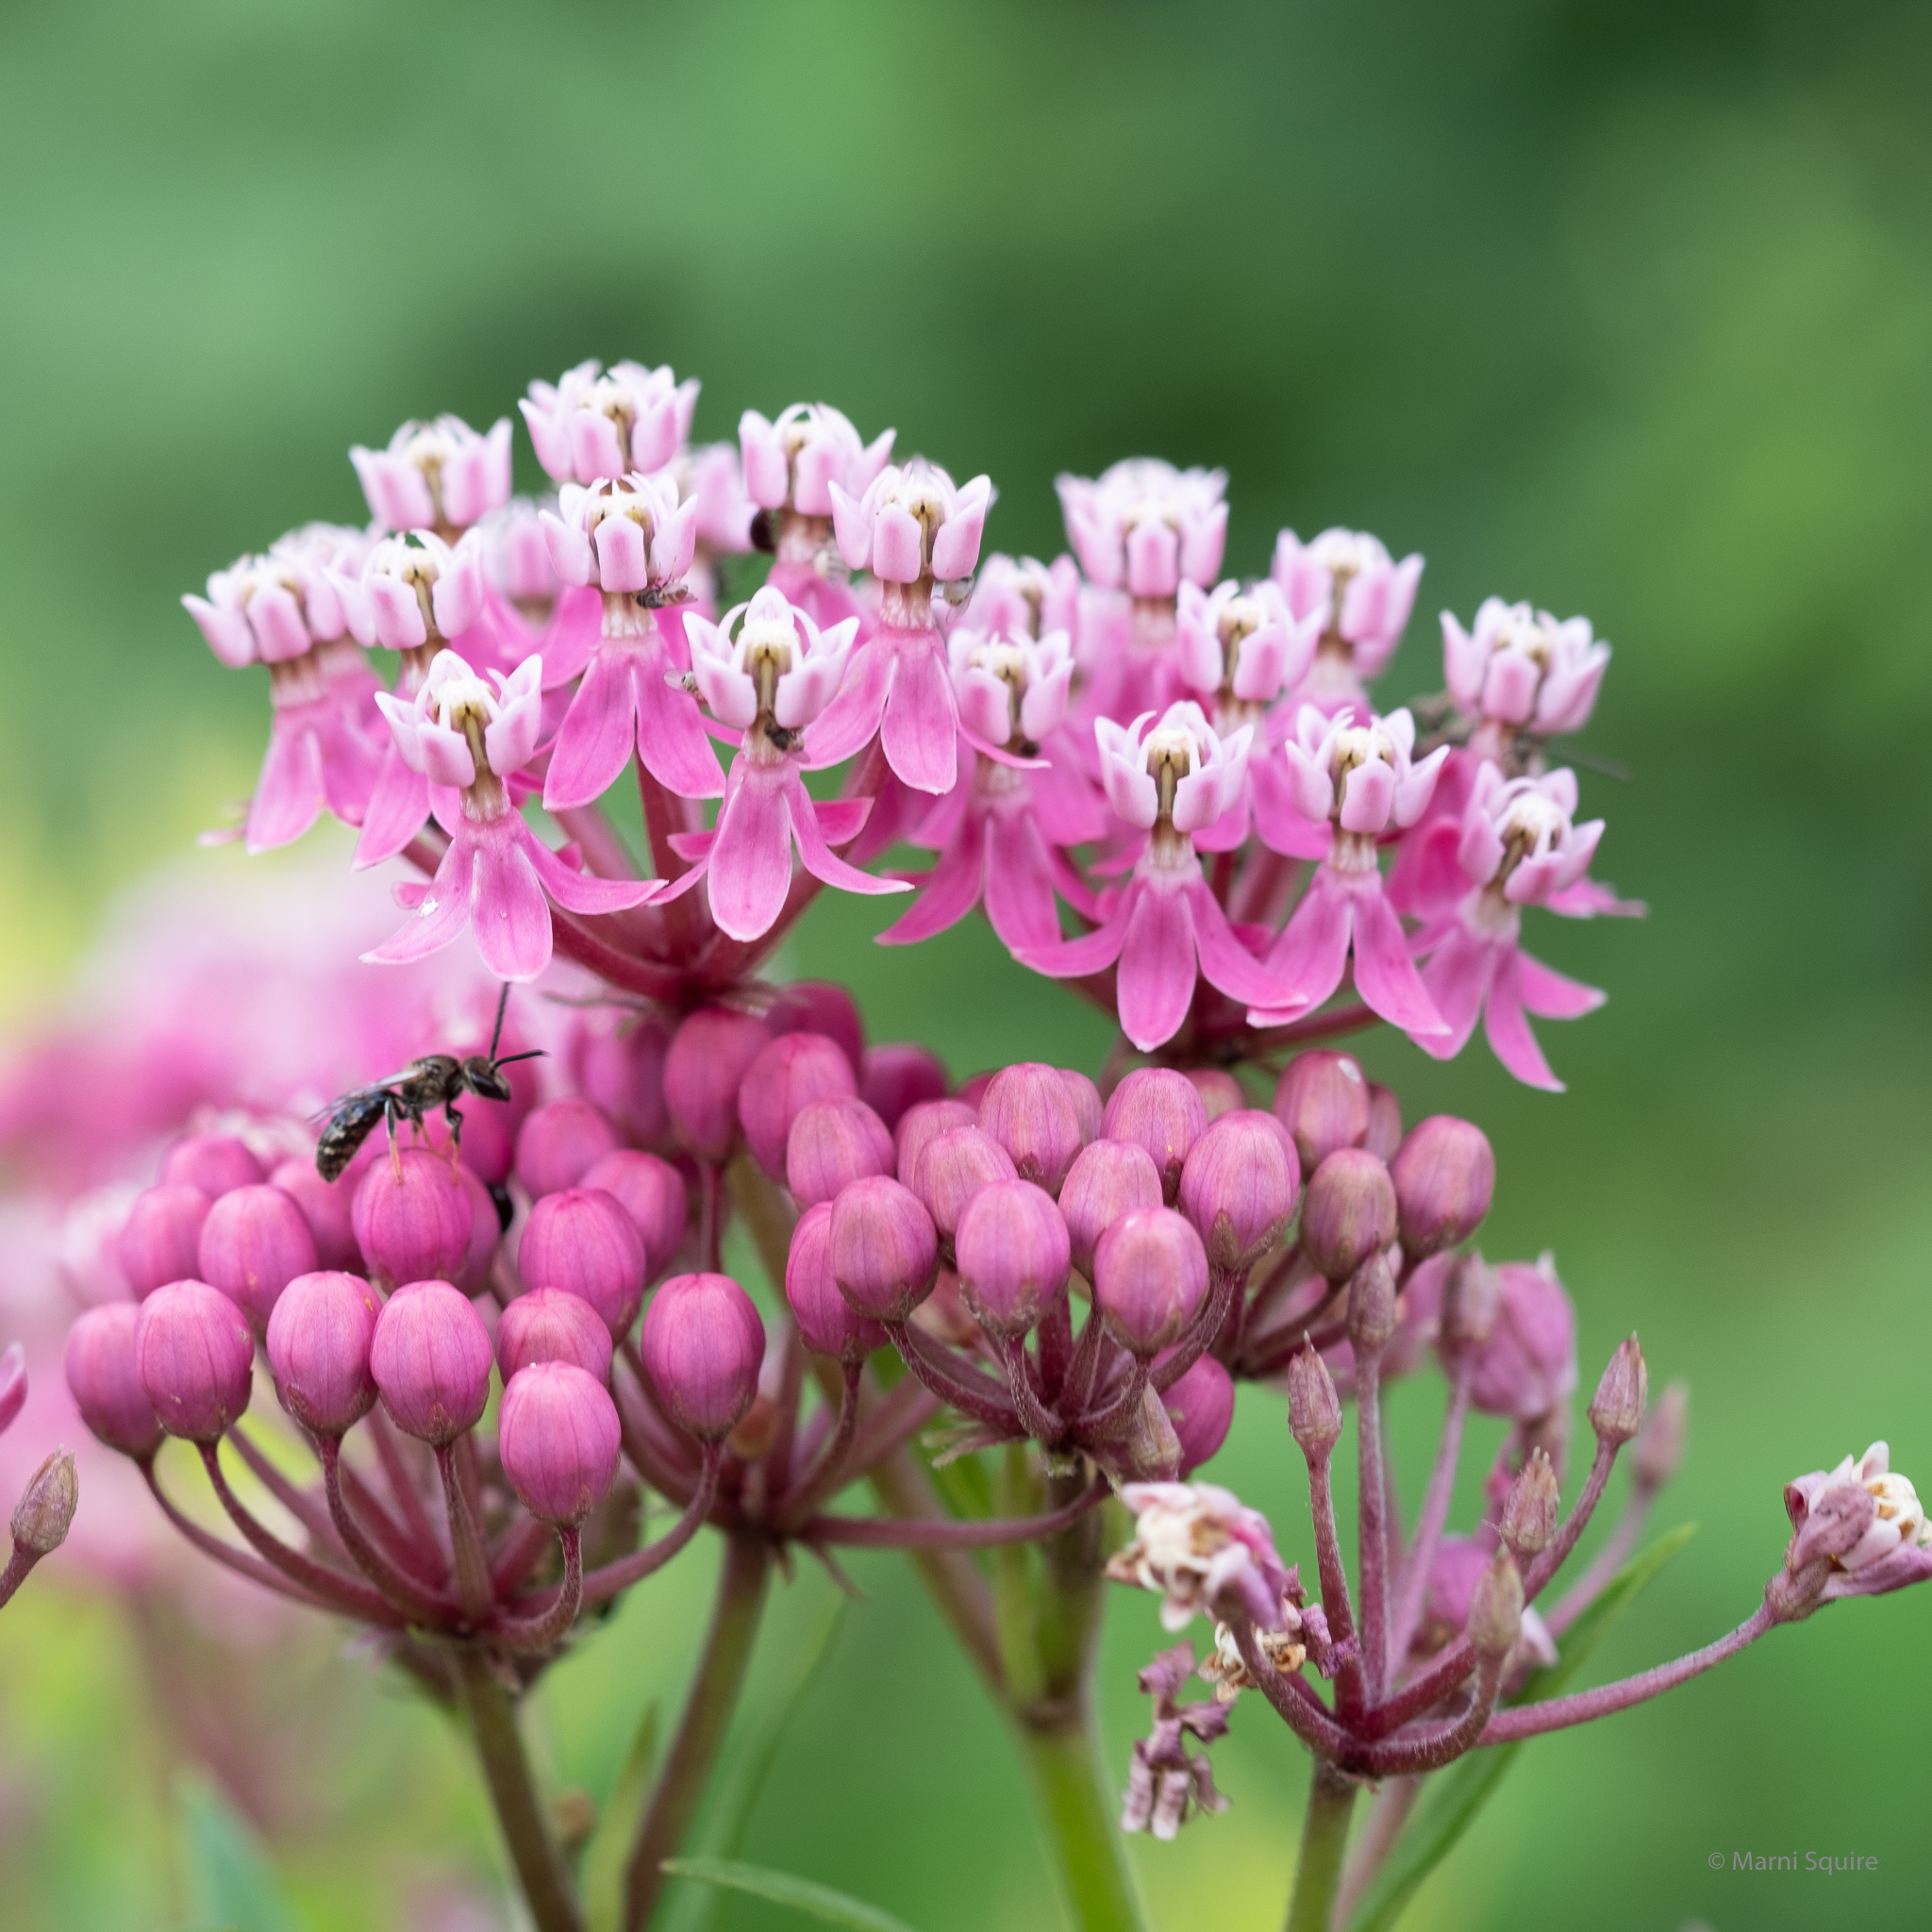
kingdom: Plantae
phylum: Tracheophyta
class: Magnoliopsida
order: Gentianales
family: Apocynaceae
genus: Asclepias
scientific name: Asclepias incarnata
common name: Swamp milkweed
